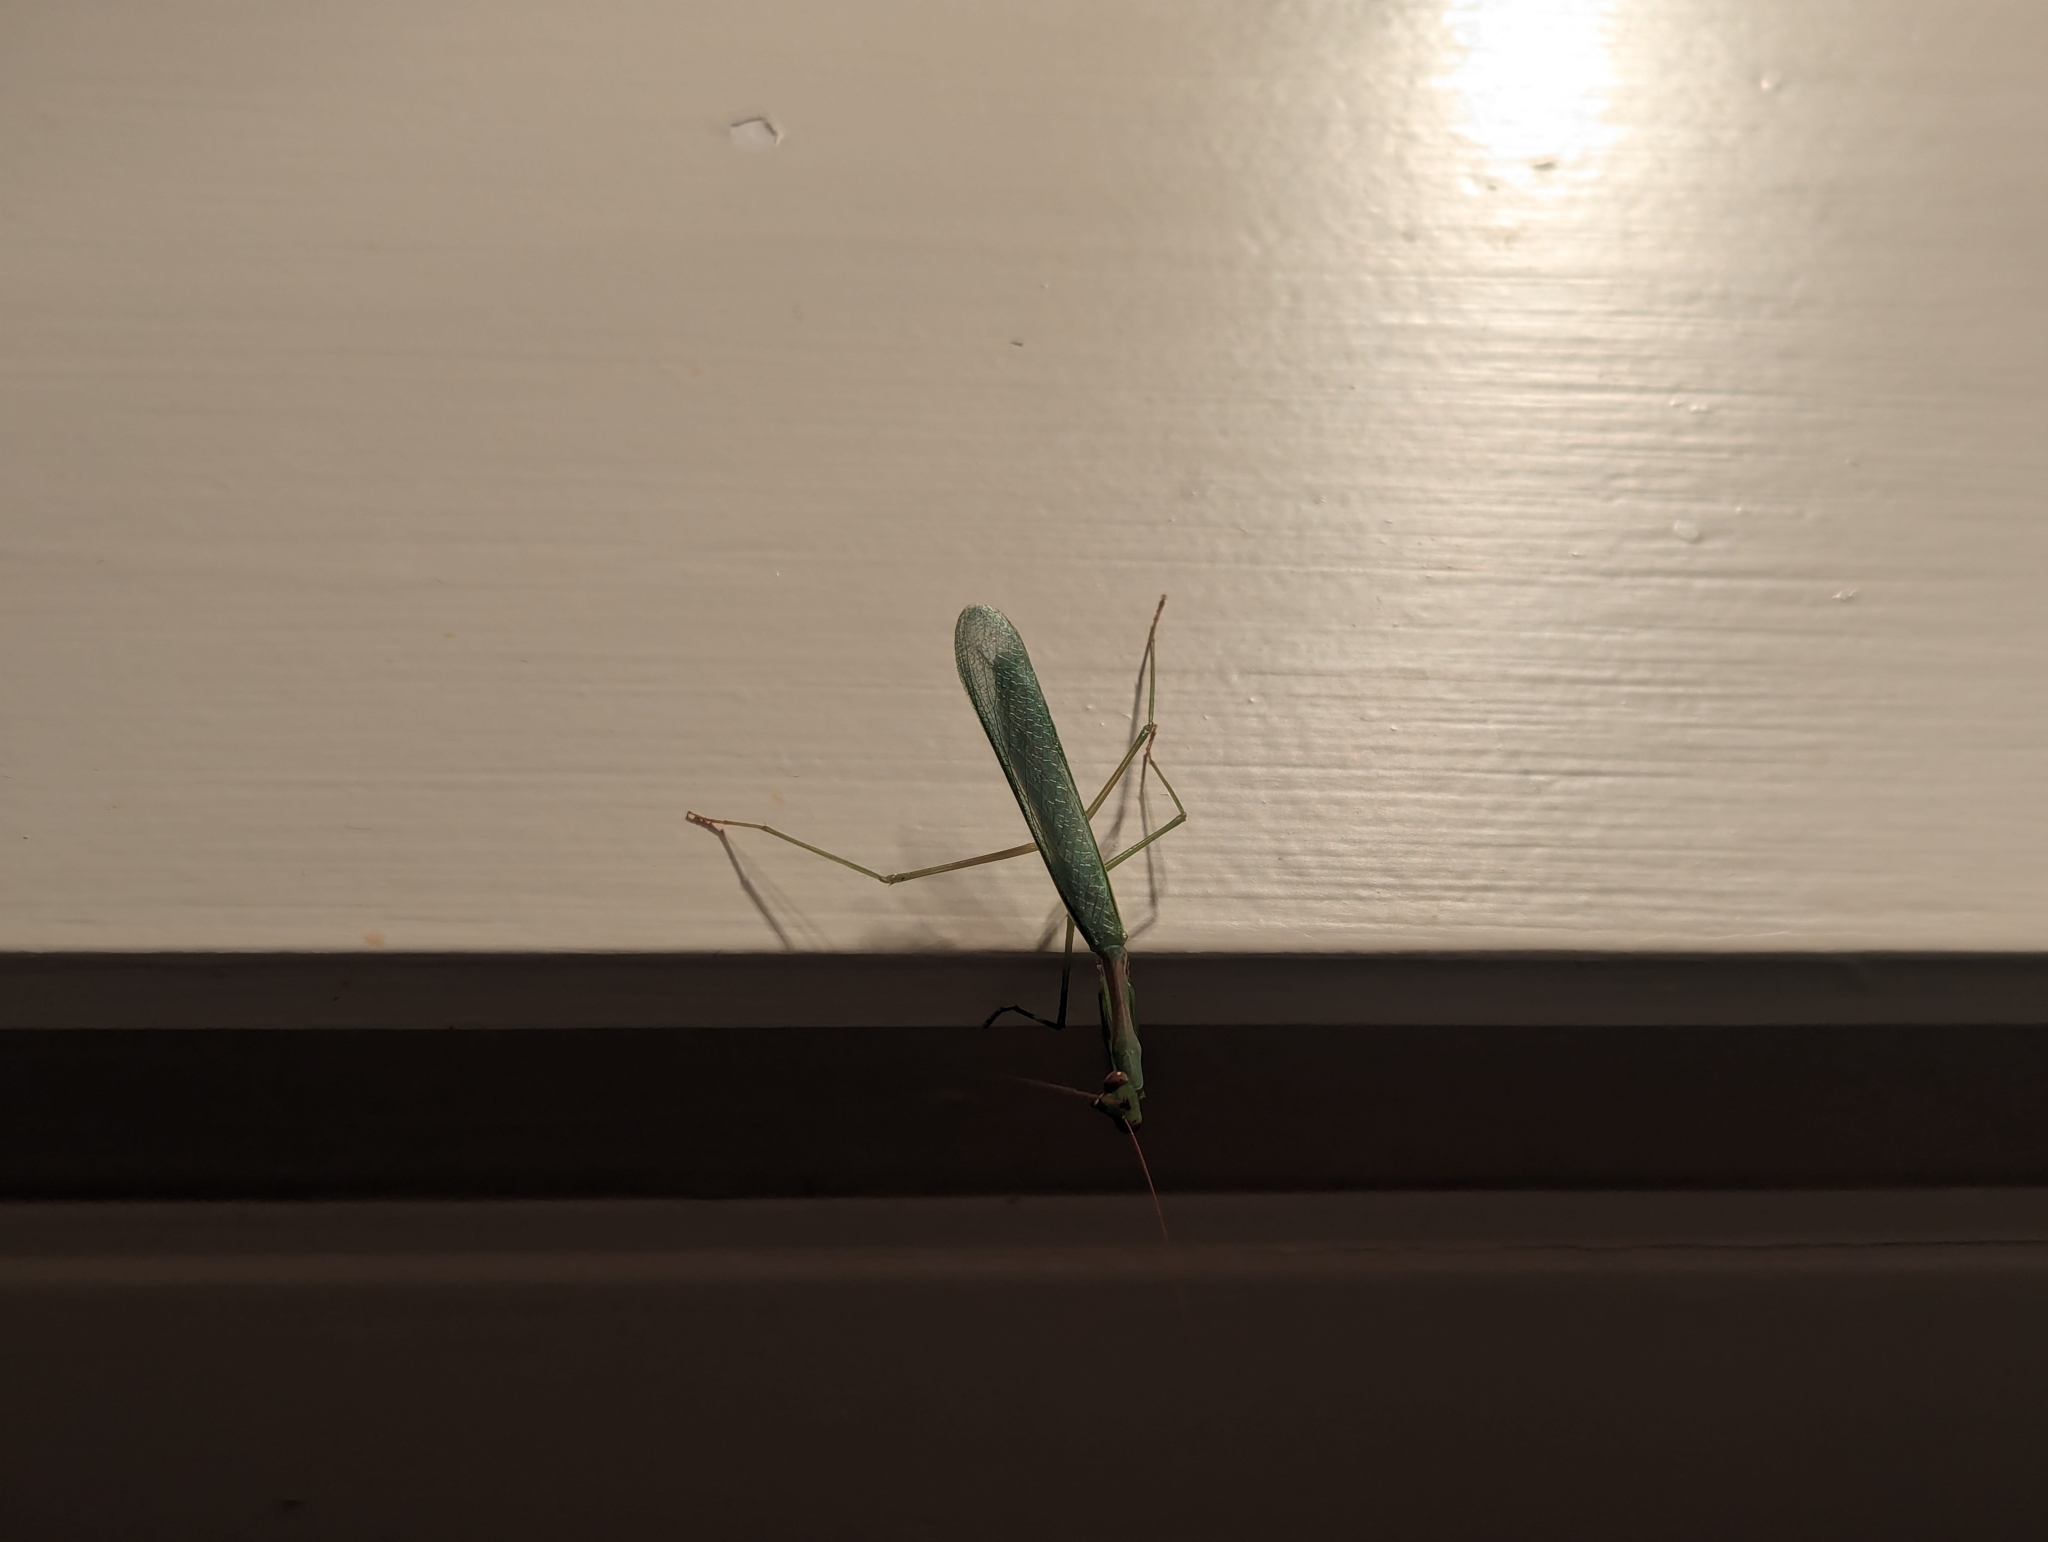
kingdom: Animalia
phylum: Arthropoda
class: Insecta
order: Mantodea
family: Miomantidae
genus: Miomantis
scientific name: Miomantis caffra
